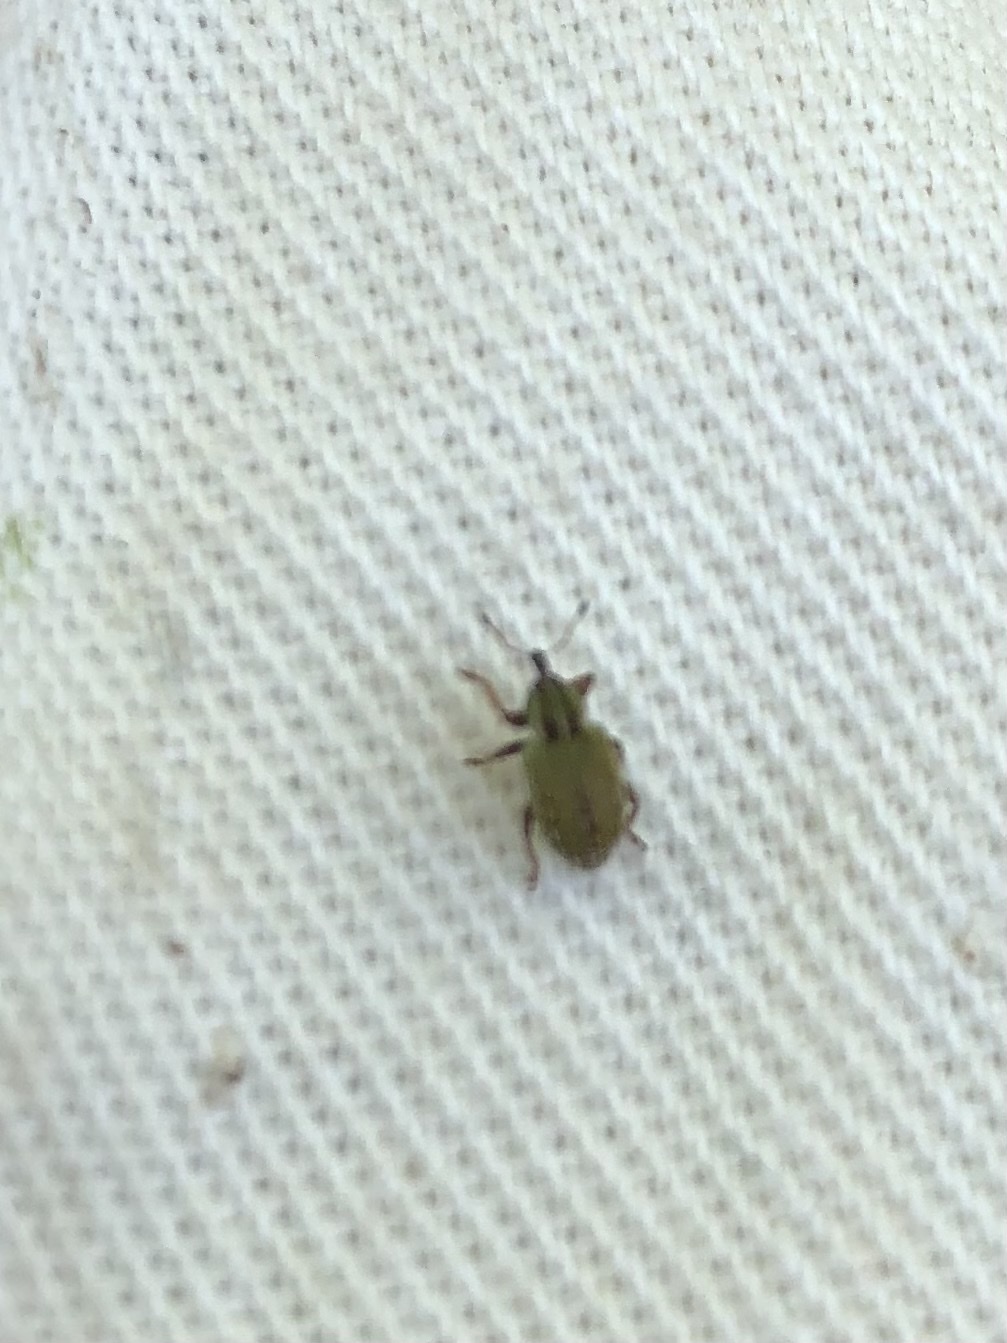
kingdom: Animalia
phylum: Arthropoda
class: Insecta
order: Coleoptera
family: Curculionidae
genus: Hypera
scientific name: Hypera nigrirostris
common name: Black-beaked green weevil
